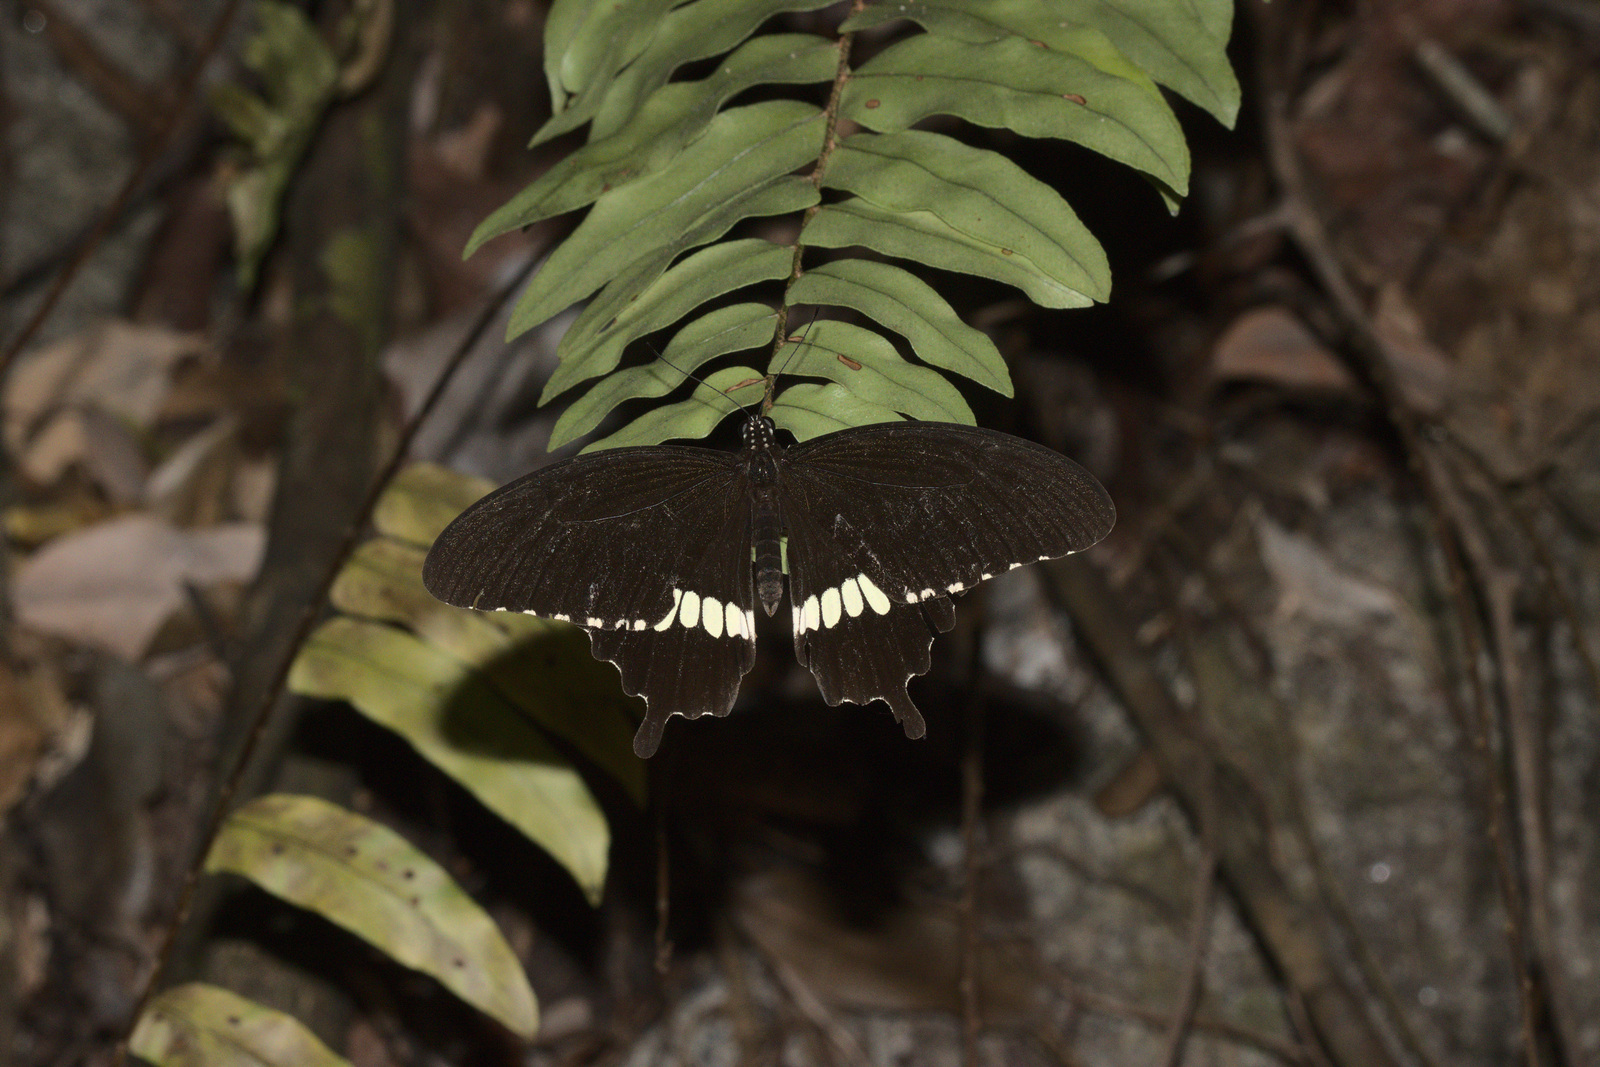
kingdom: Animalia
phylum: Arthropoda
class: Insecta
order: Lepidoptera
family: Papilionidae
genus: Papilio
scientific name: Papilio polytes
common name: Common mormon
